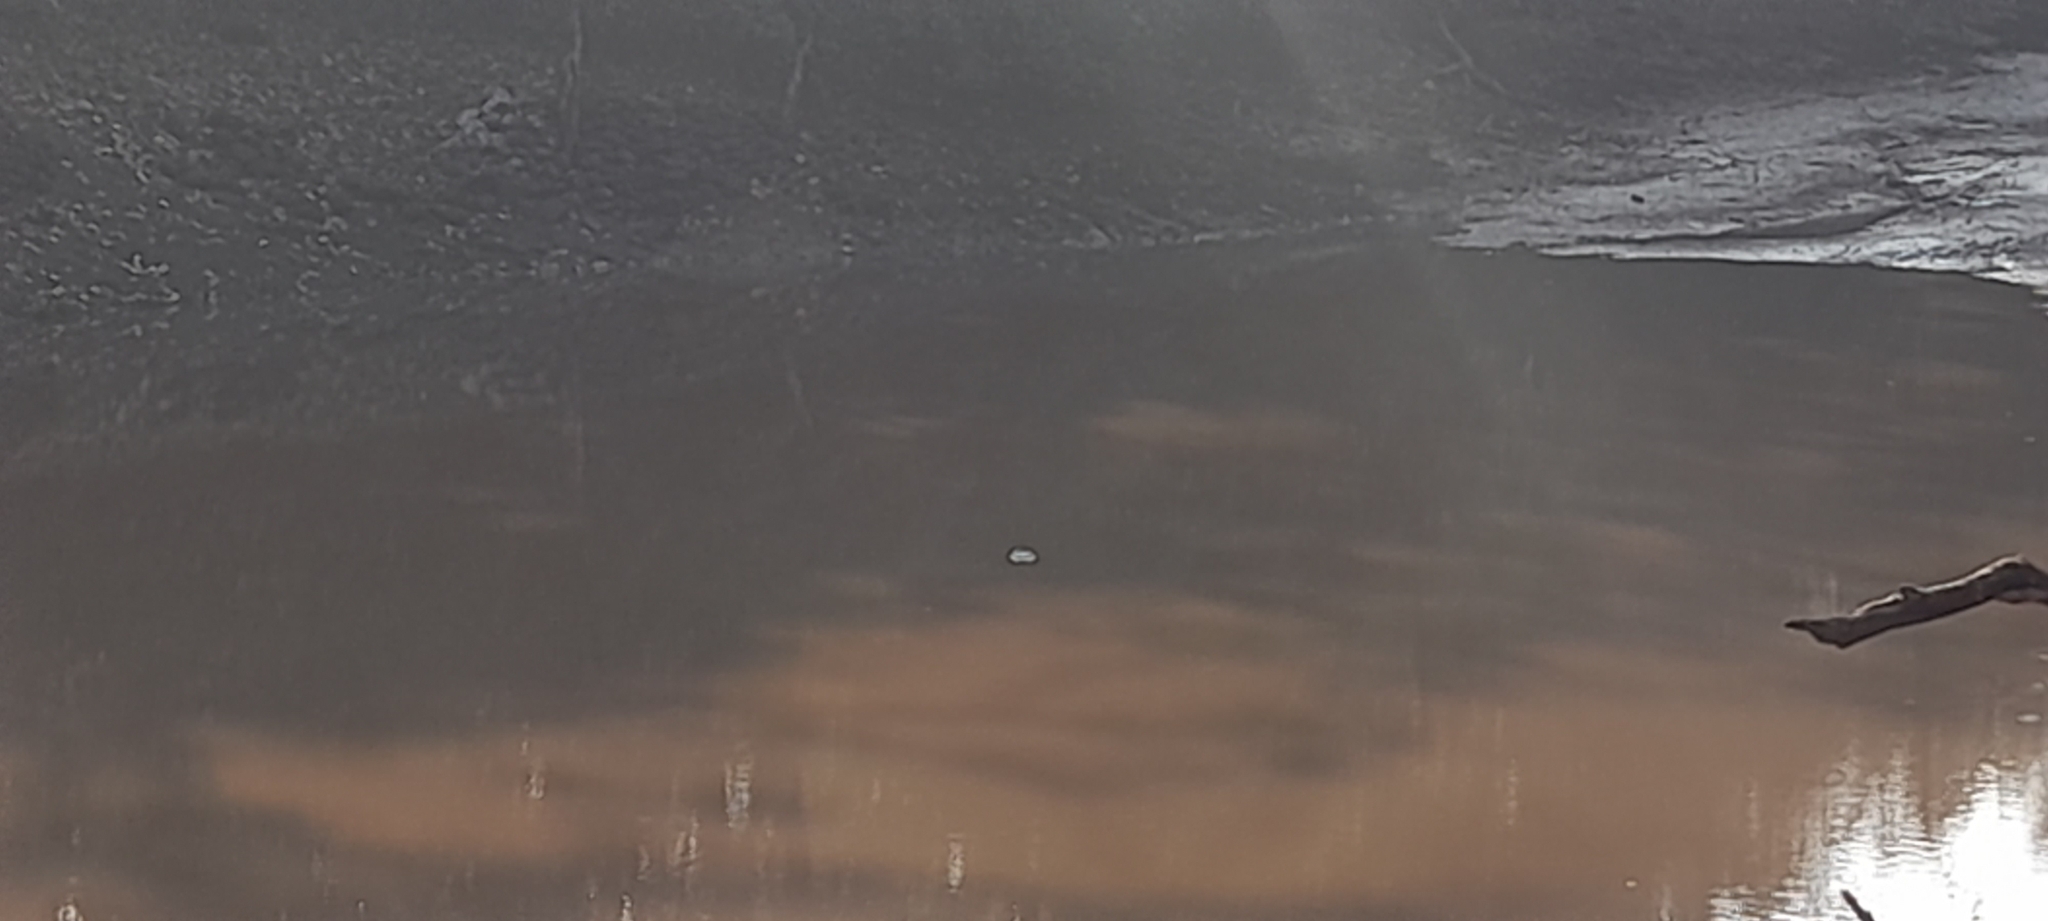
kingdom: Animalia
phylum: Chordata
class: Crocodylia
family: Crocodylidae
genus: Crocodylus
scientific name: Crocodylus palustris
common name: Mugger crocodile
